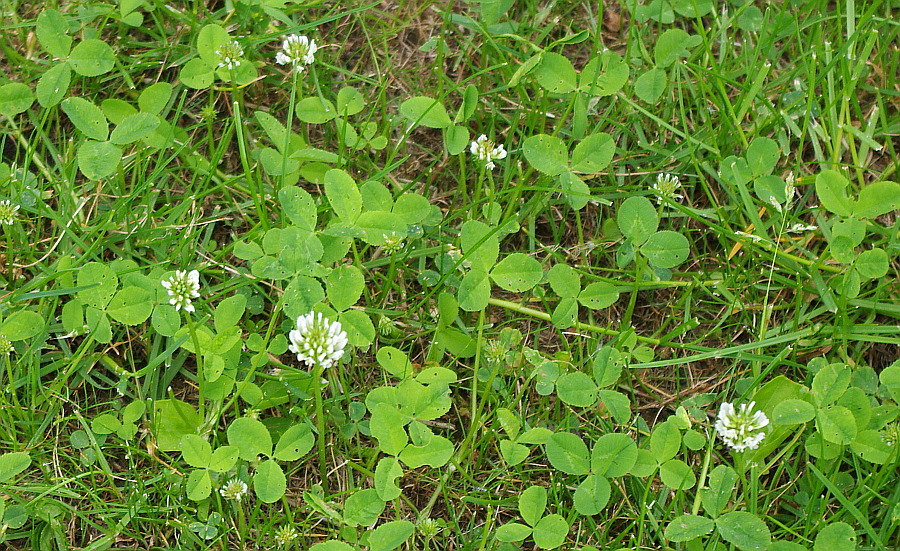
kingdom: Plantae
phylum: Tracheophyta
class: Magnoliopsida
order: Fabales
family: Fabaceae
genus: Trifolium
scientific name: Trifolium repens
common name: White clover
